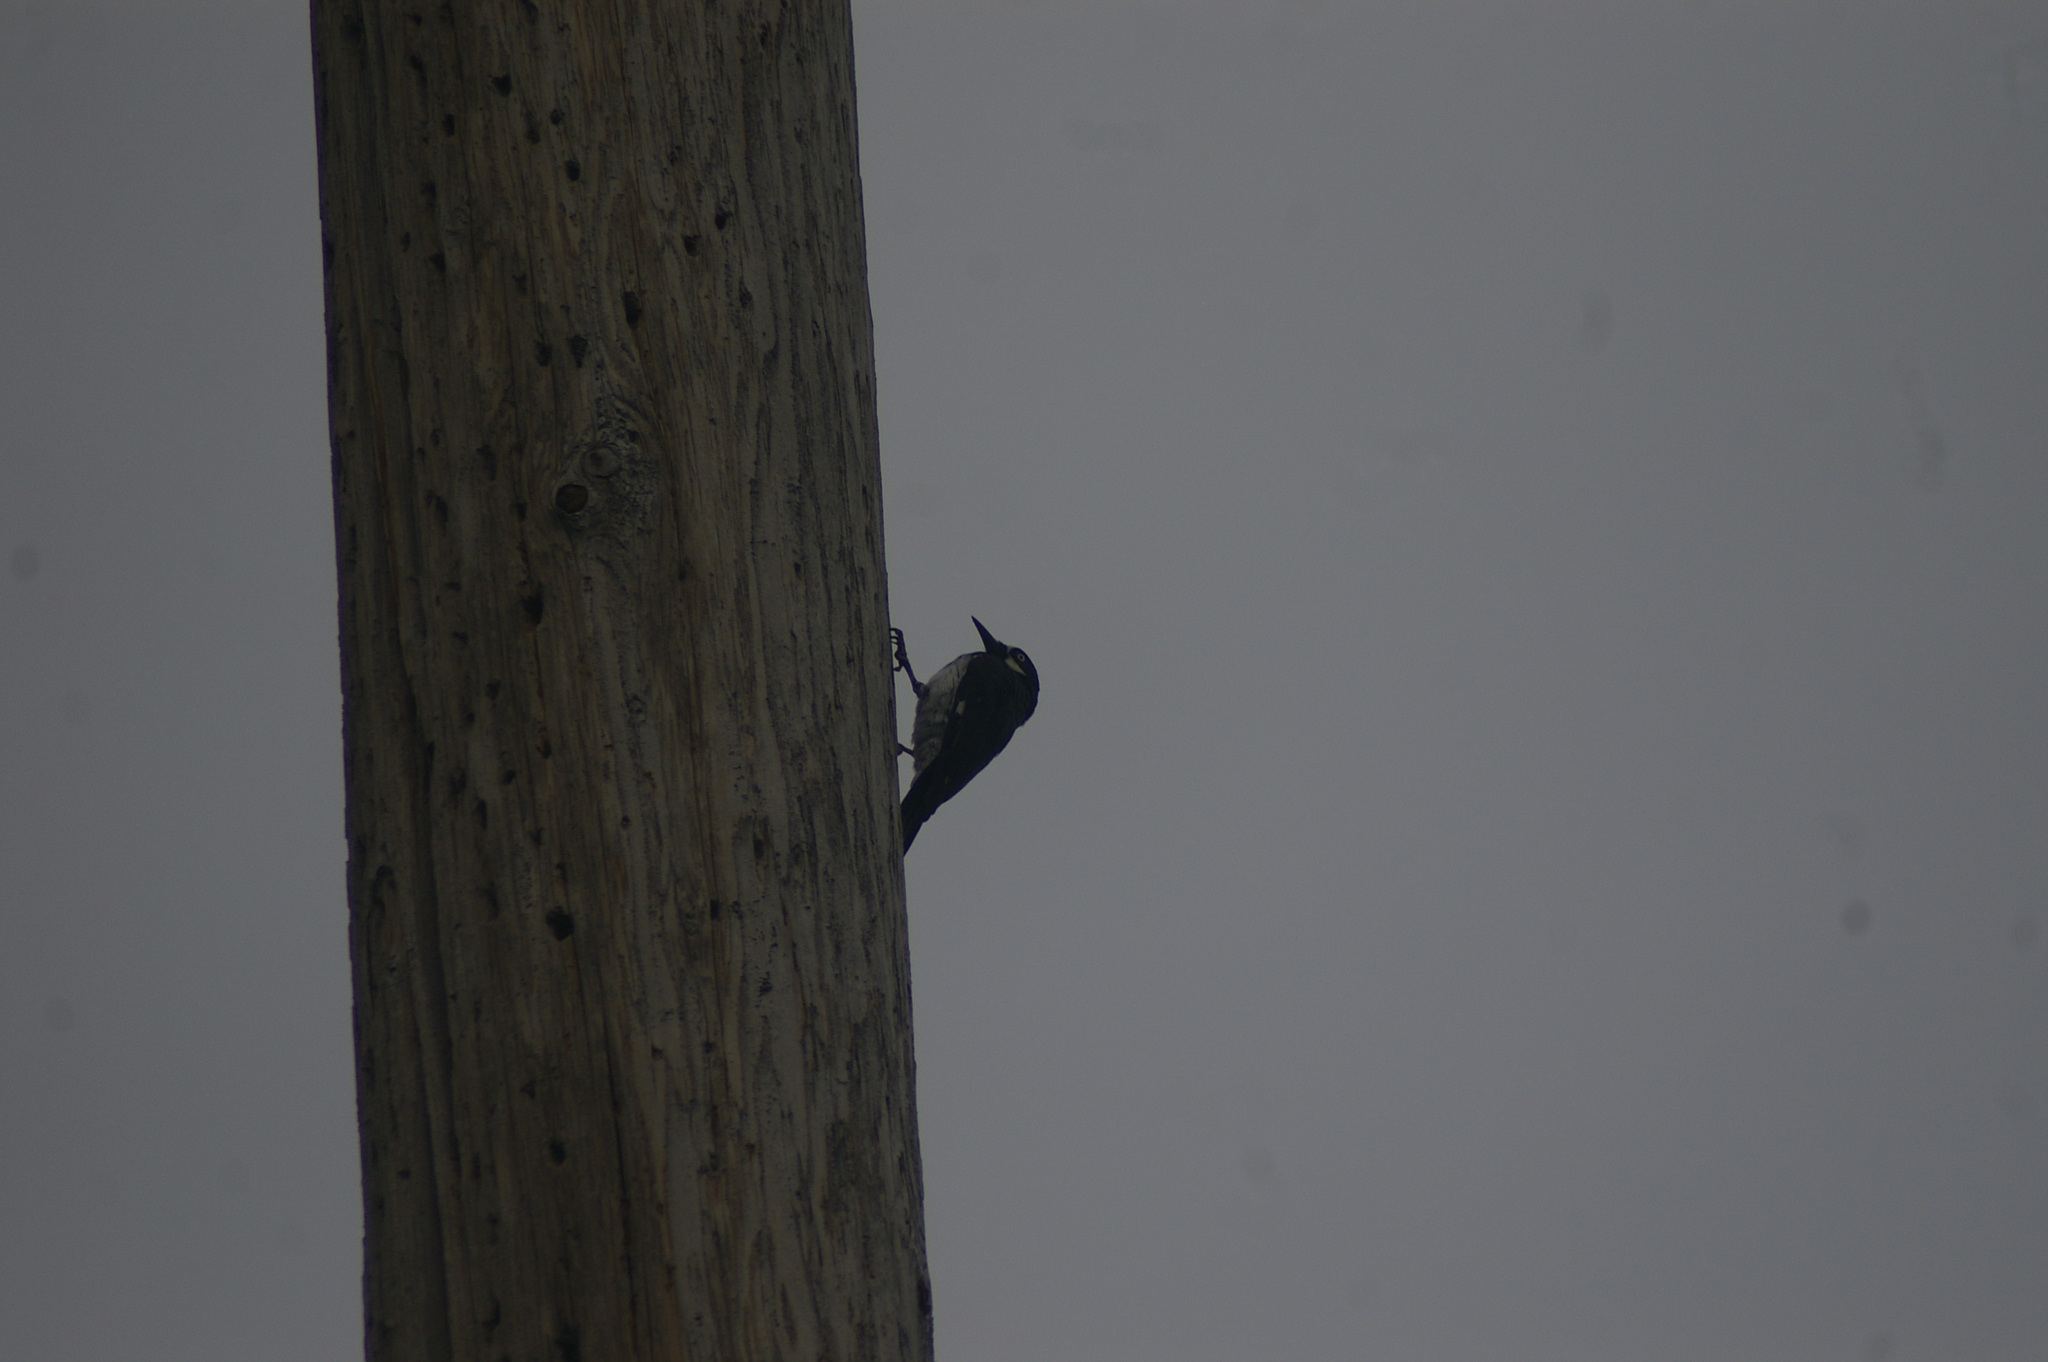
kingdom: Animalia
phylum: Chordata
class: Aves
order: Piciformes
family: Picidae
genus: Melanerpes
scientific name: Melanerpes formicivorus
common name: Acorn woodpecker
